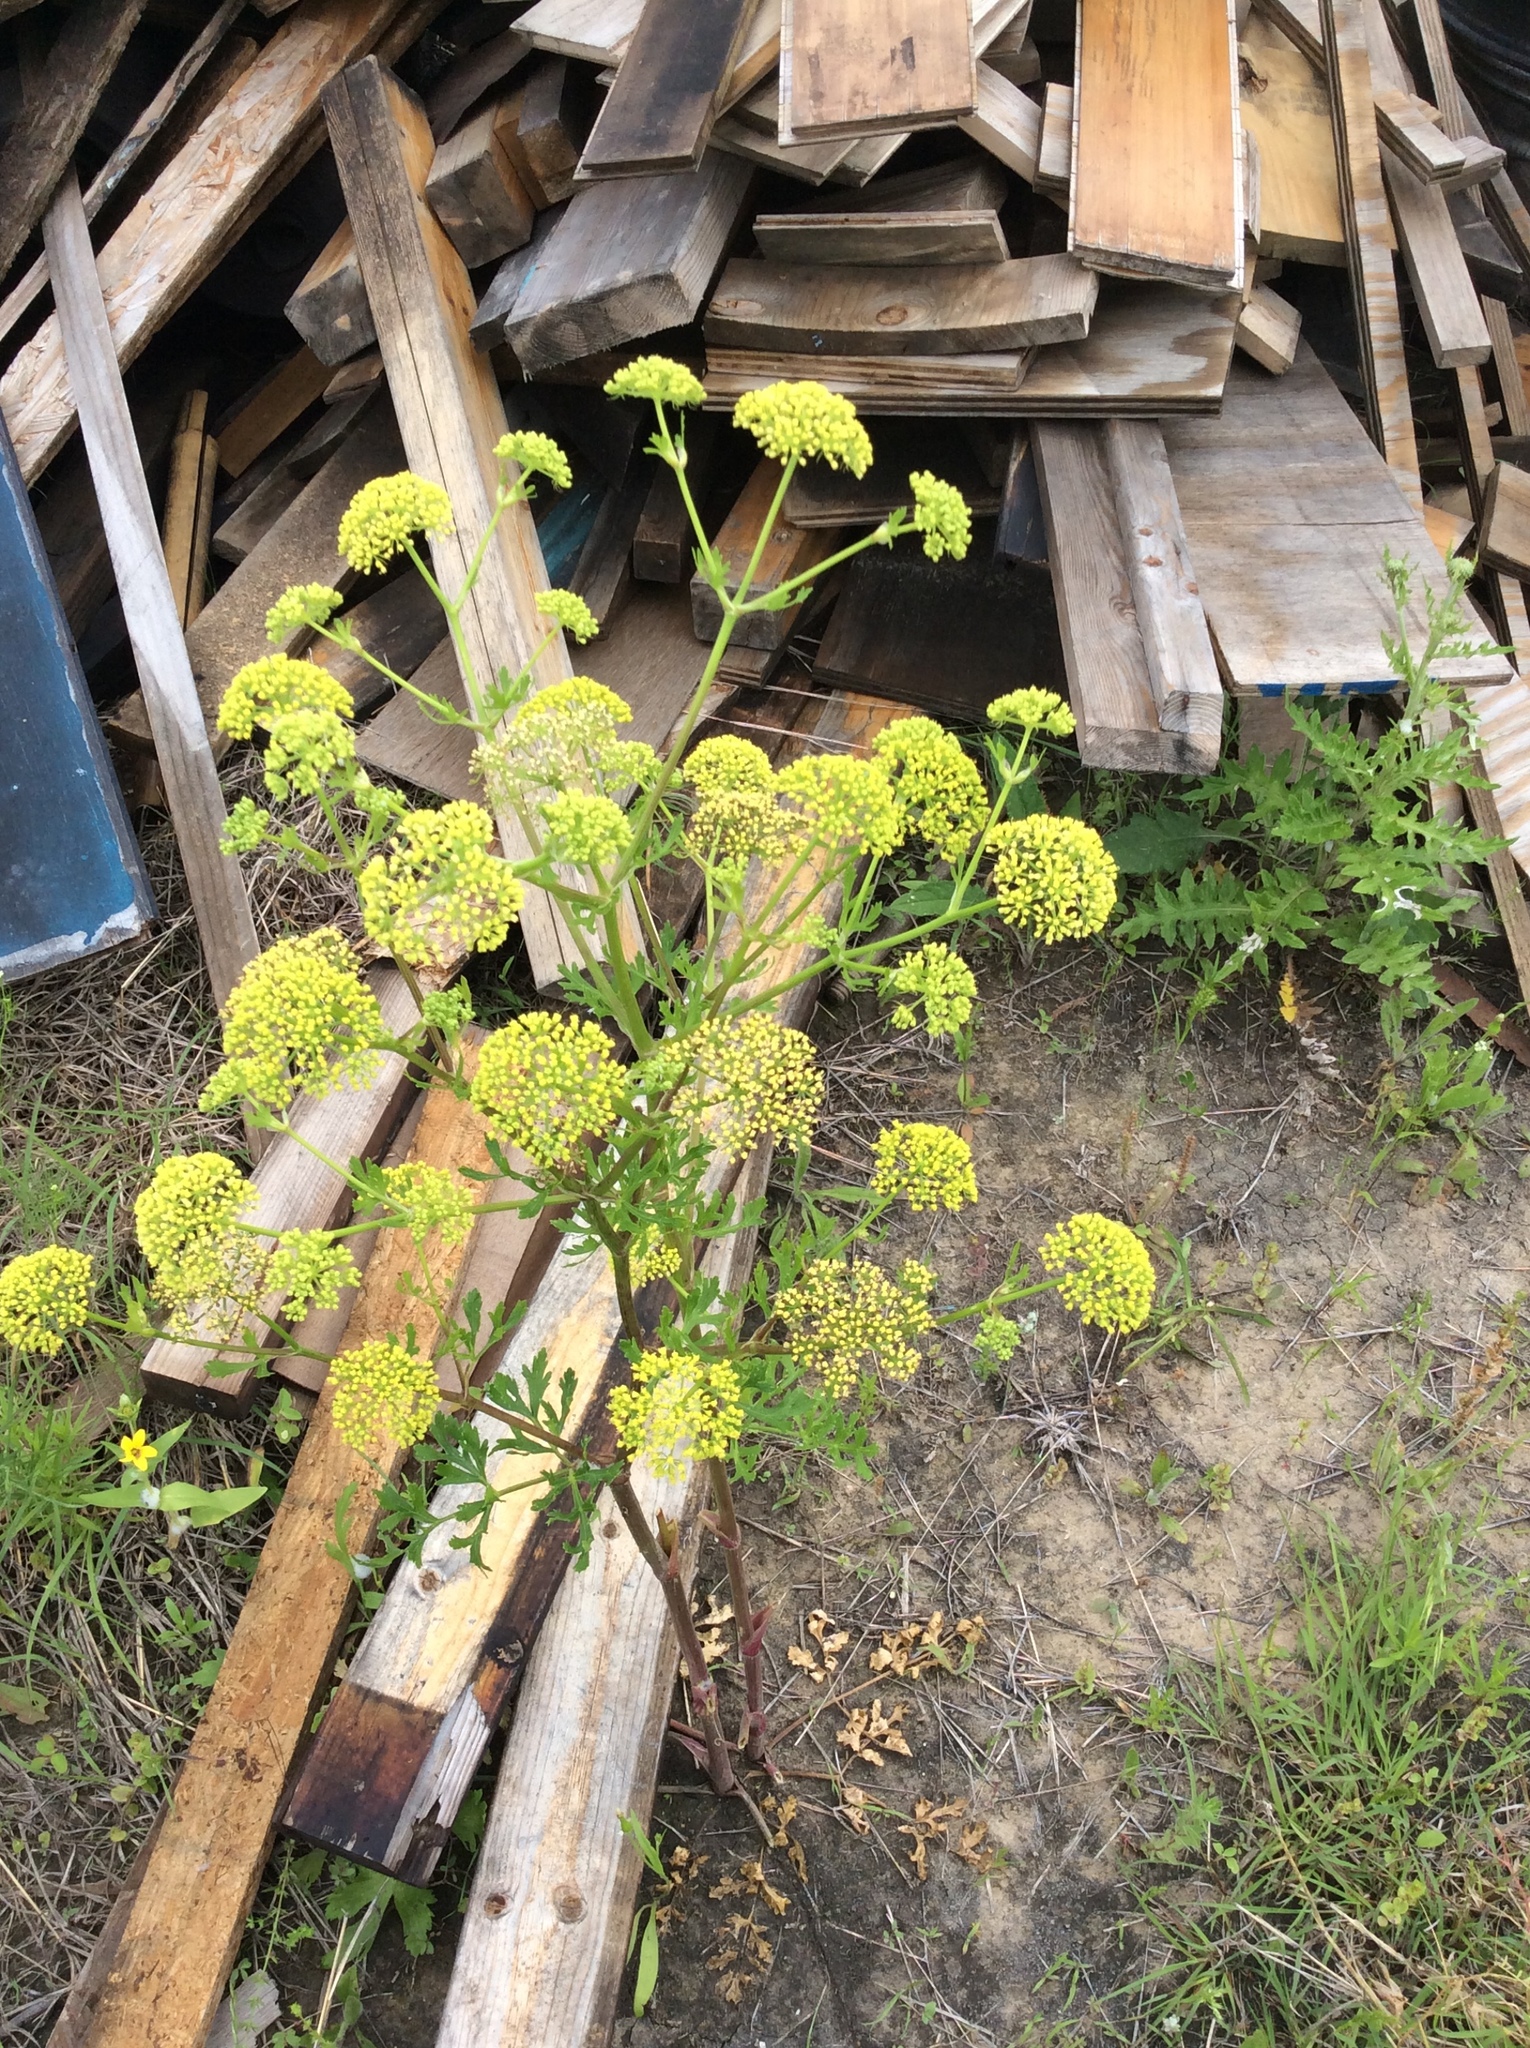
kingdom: Plantae
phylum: Tracheophyta
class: Magnoliopsida
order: Apiales
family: Apiaceae
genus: Polytaenia
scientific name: Polytaenia texana
